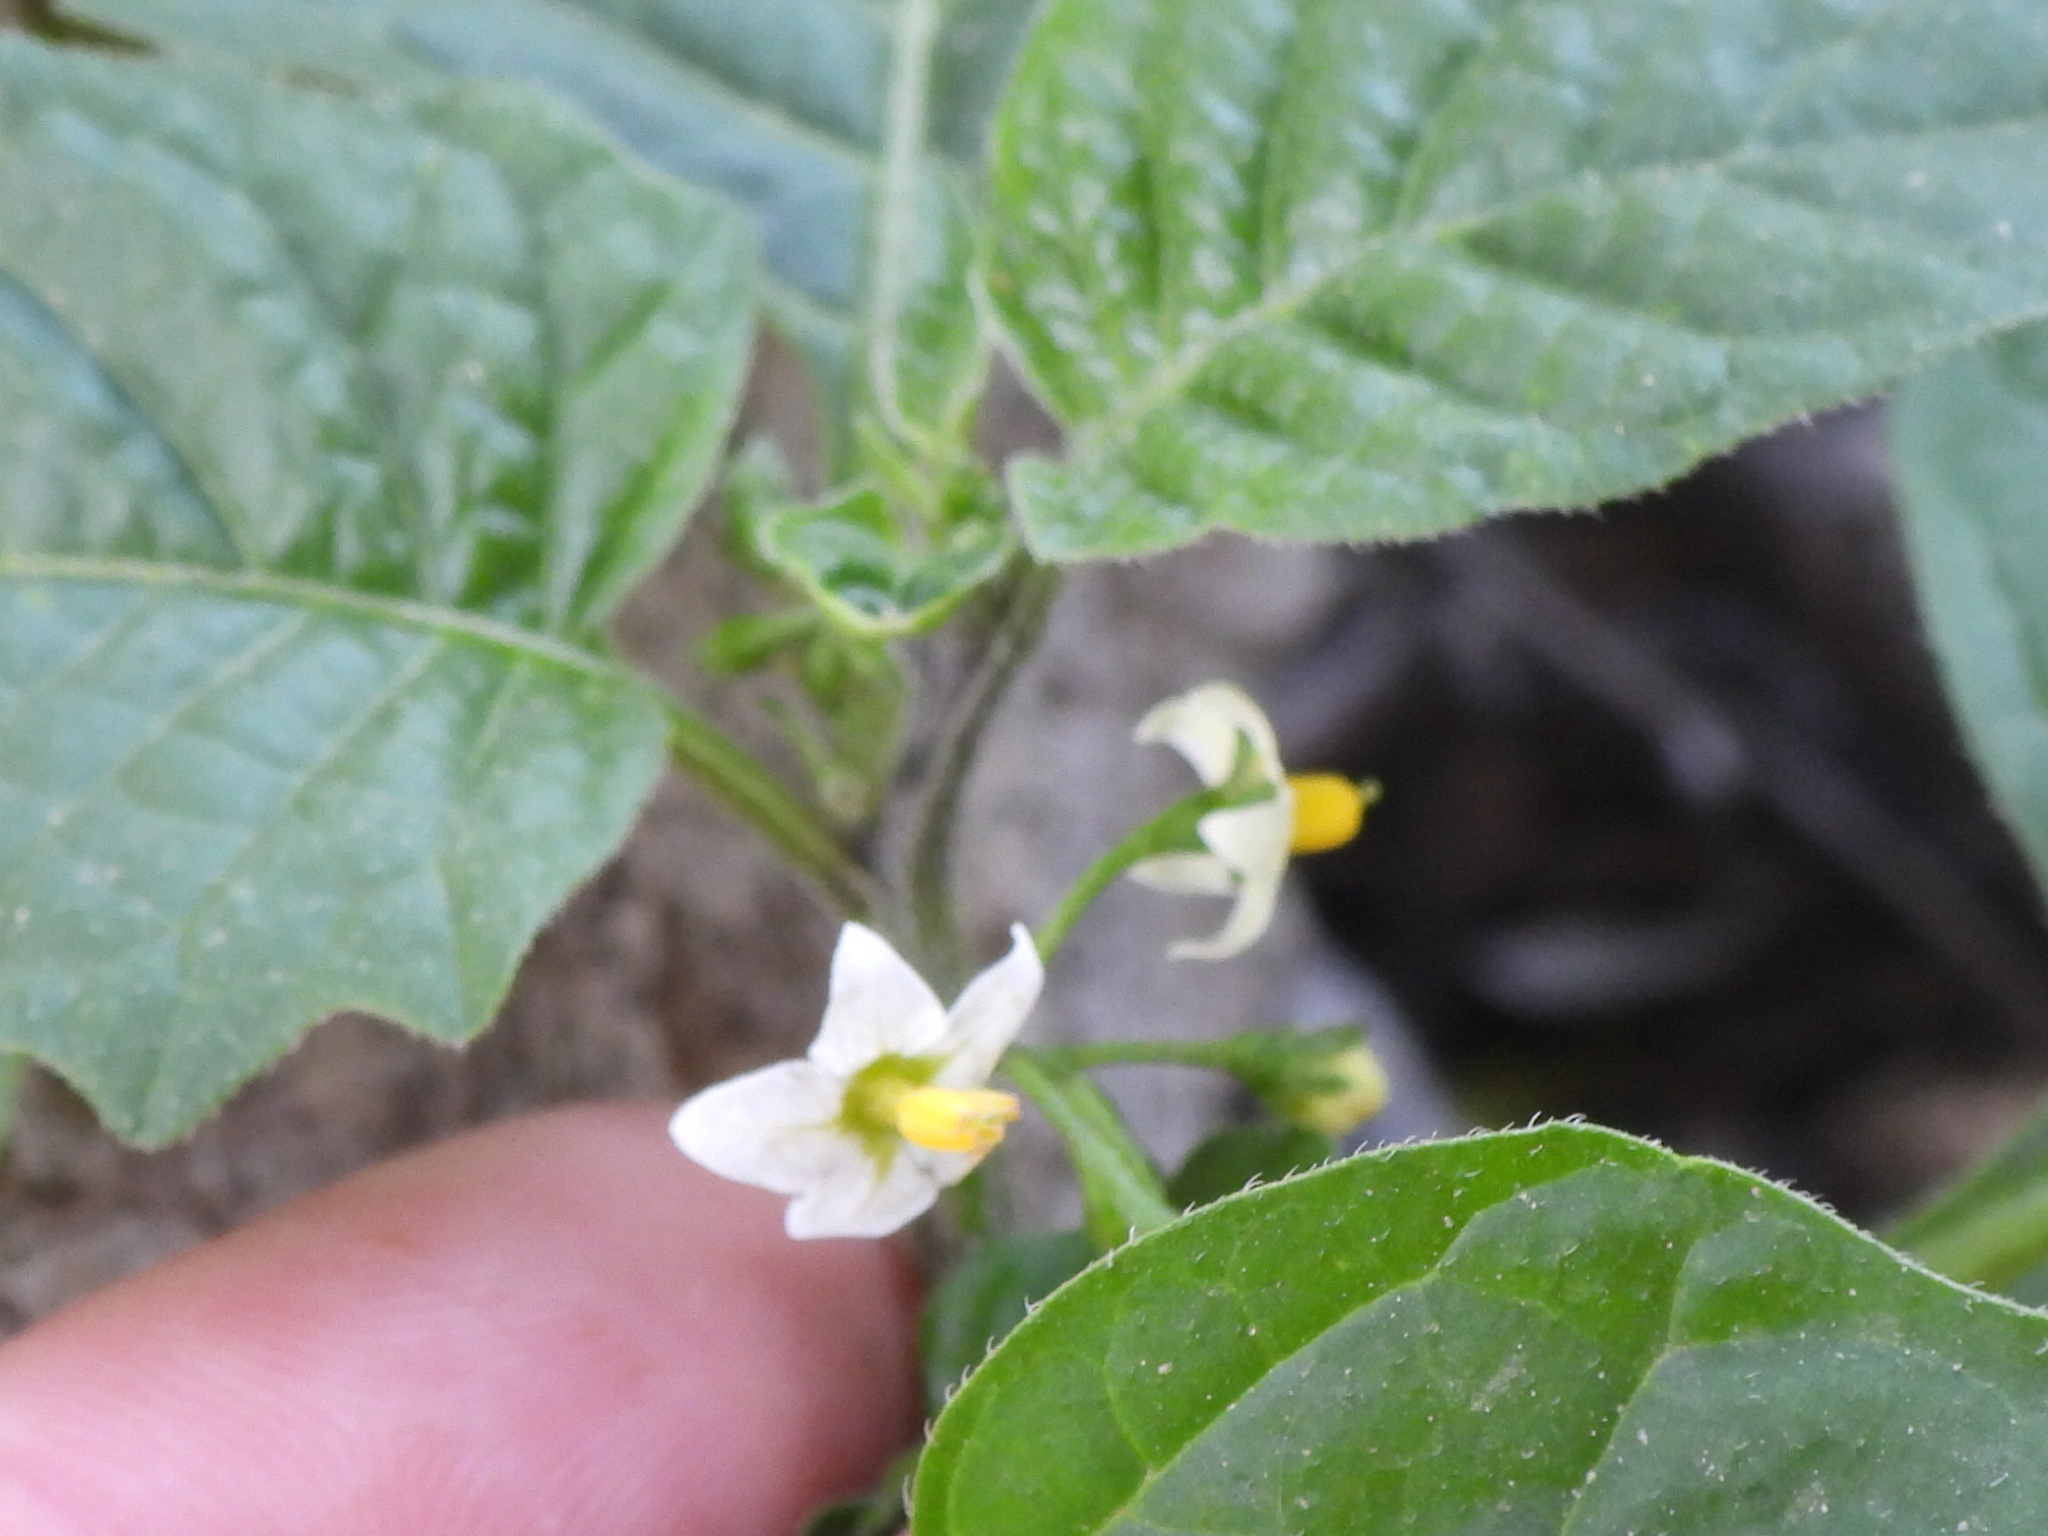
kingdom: Plantae
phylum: Tracheophyta
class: Magnoliopsida
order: Solanales
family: Solanaceae
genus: Solanum
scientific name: Solanum nigrum
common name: Black nightshade
